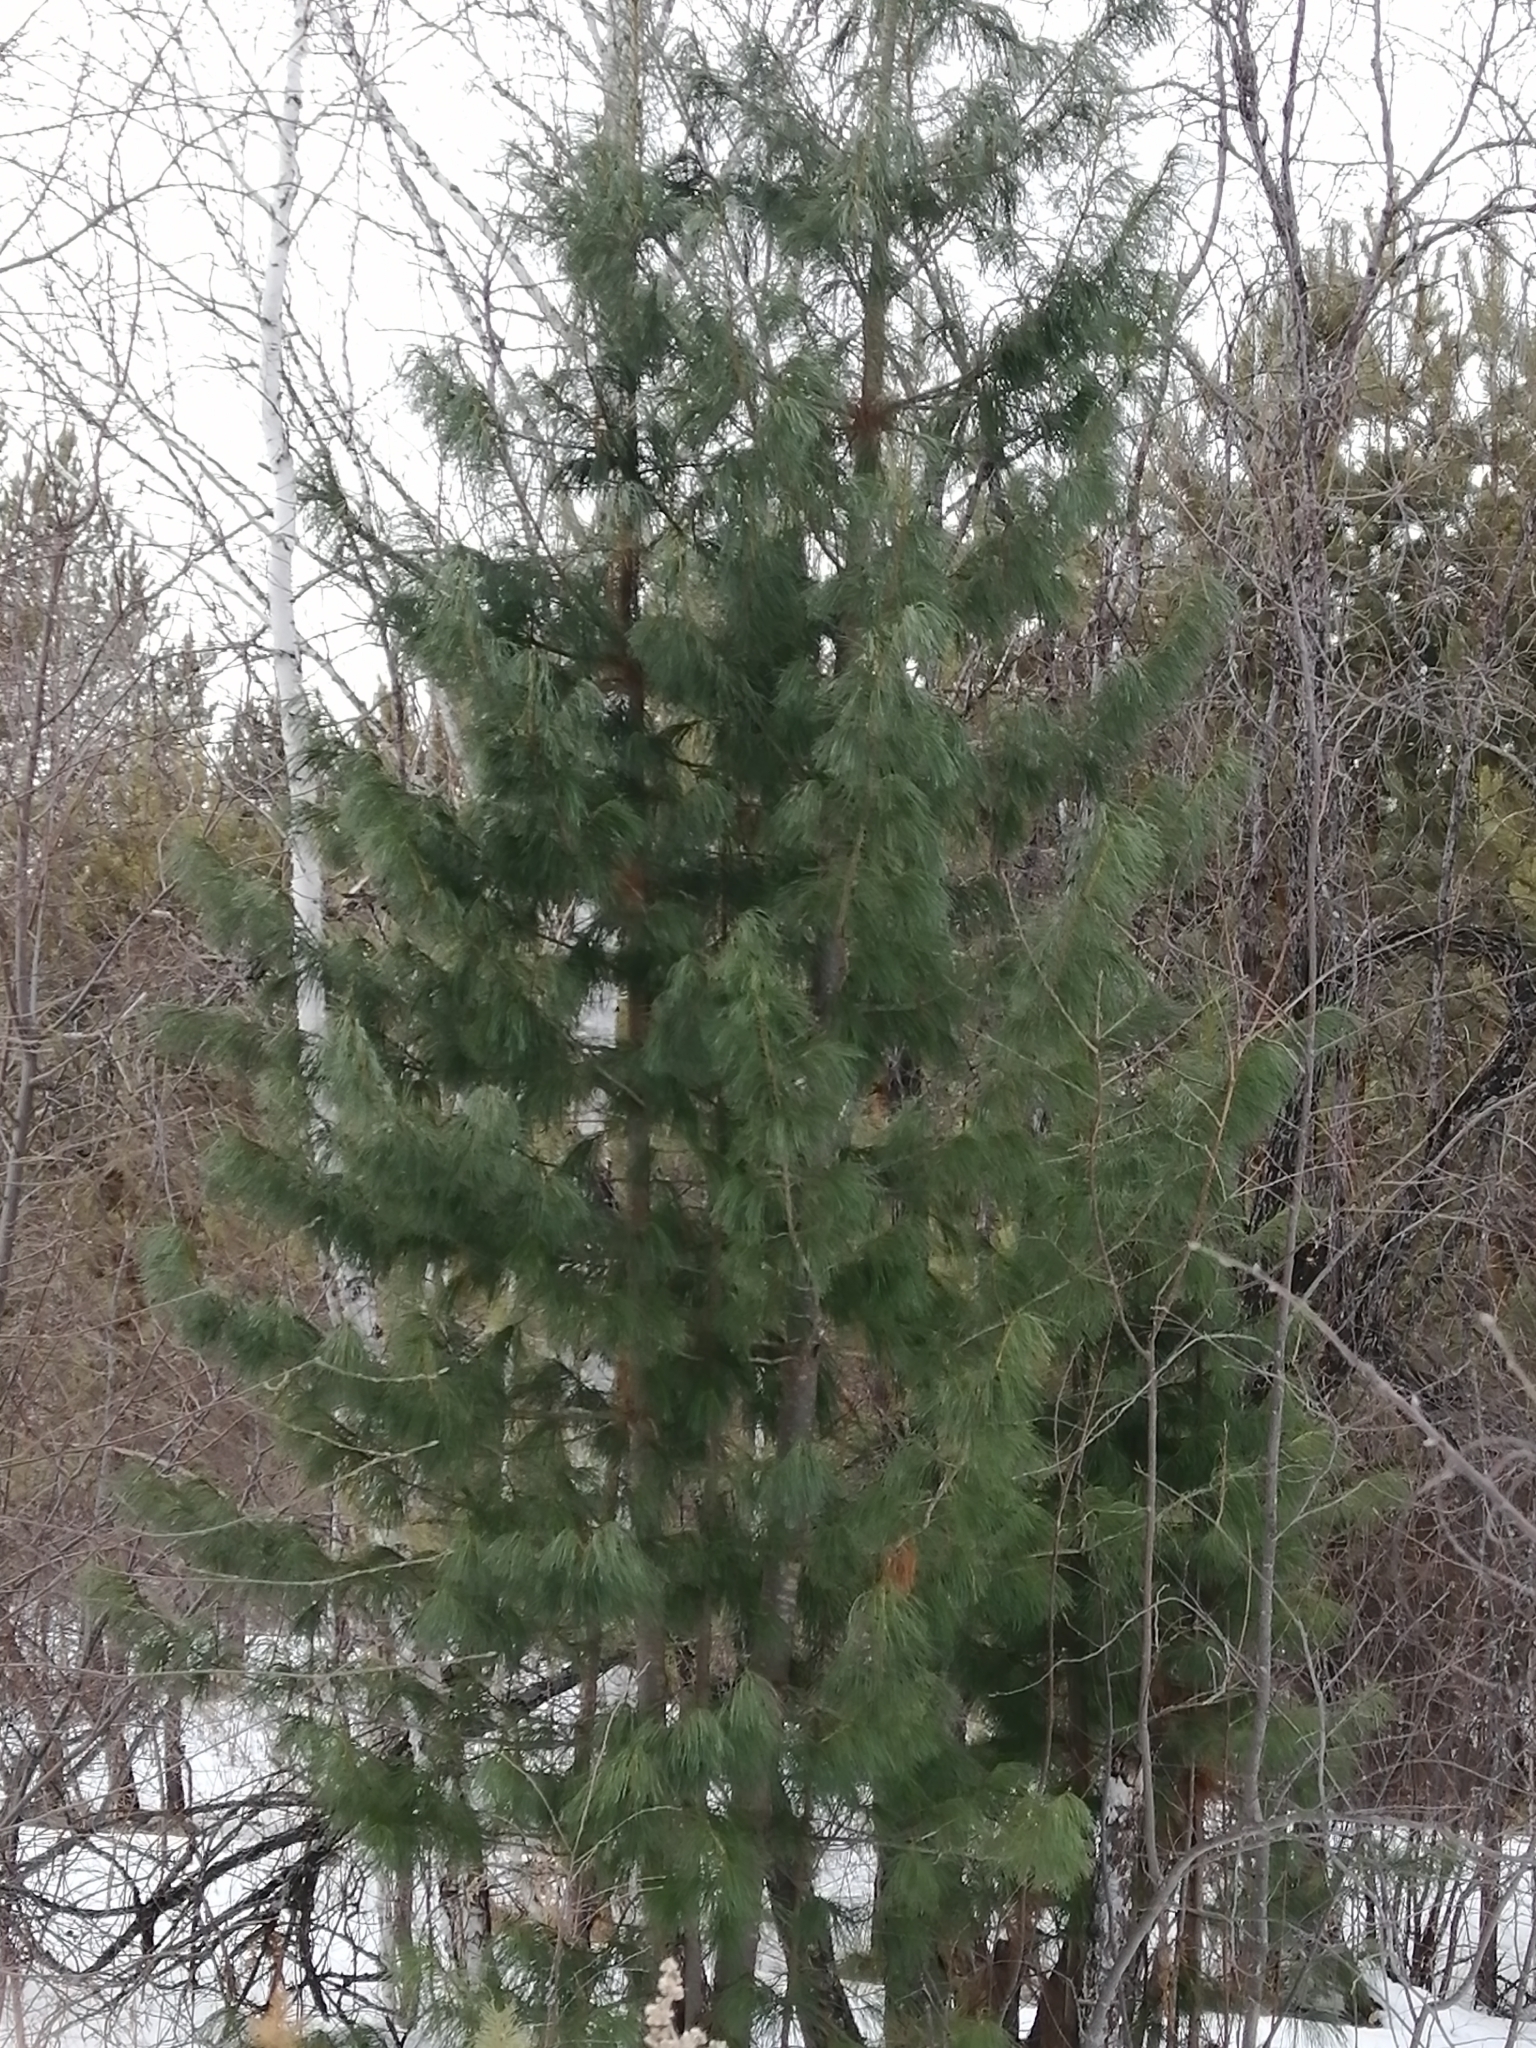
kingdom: Plantae
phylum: Tracheophyta
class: Pinopsida
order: Pinales
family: Pinaceae
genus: Pinus
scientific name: Pinus sibirica
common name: Siberian pine
